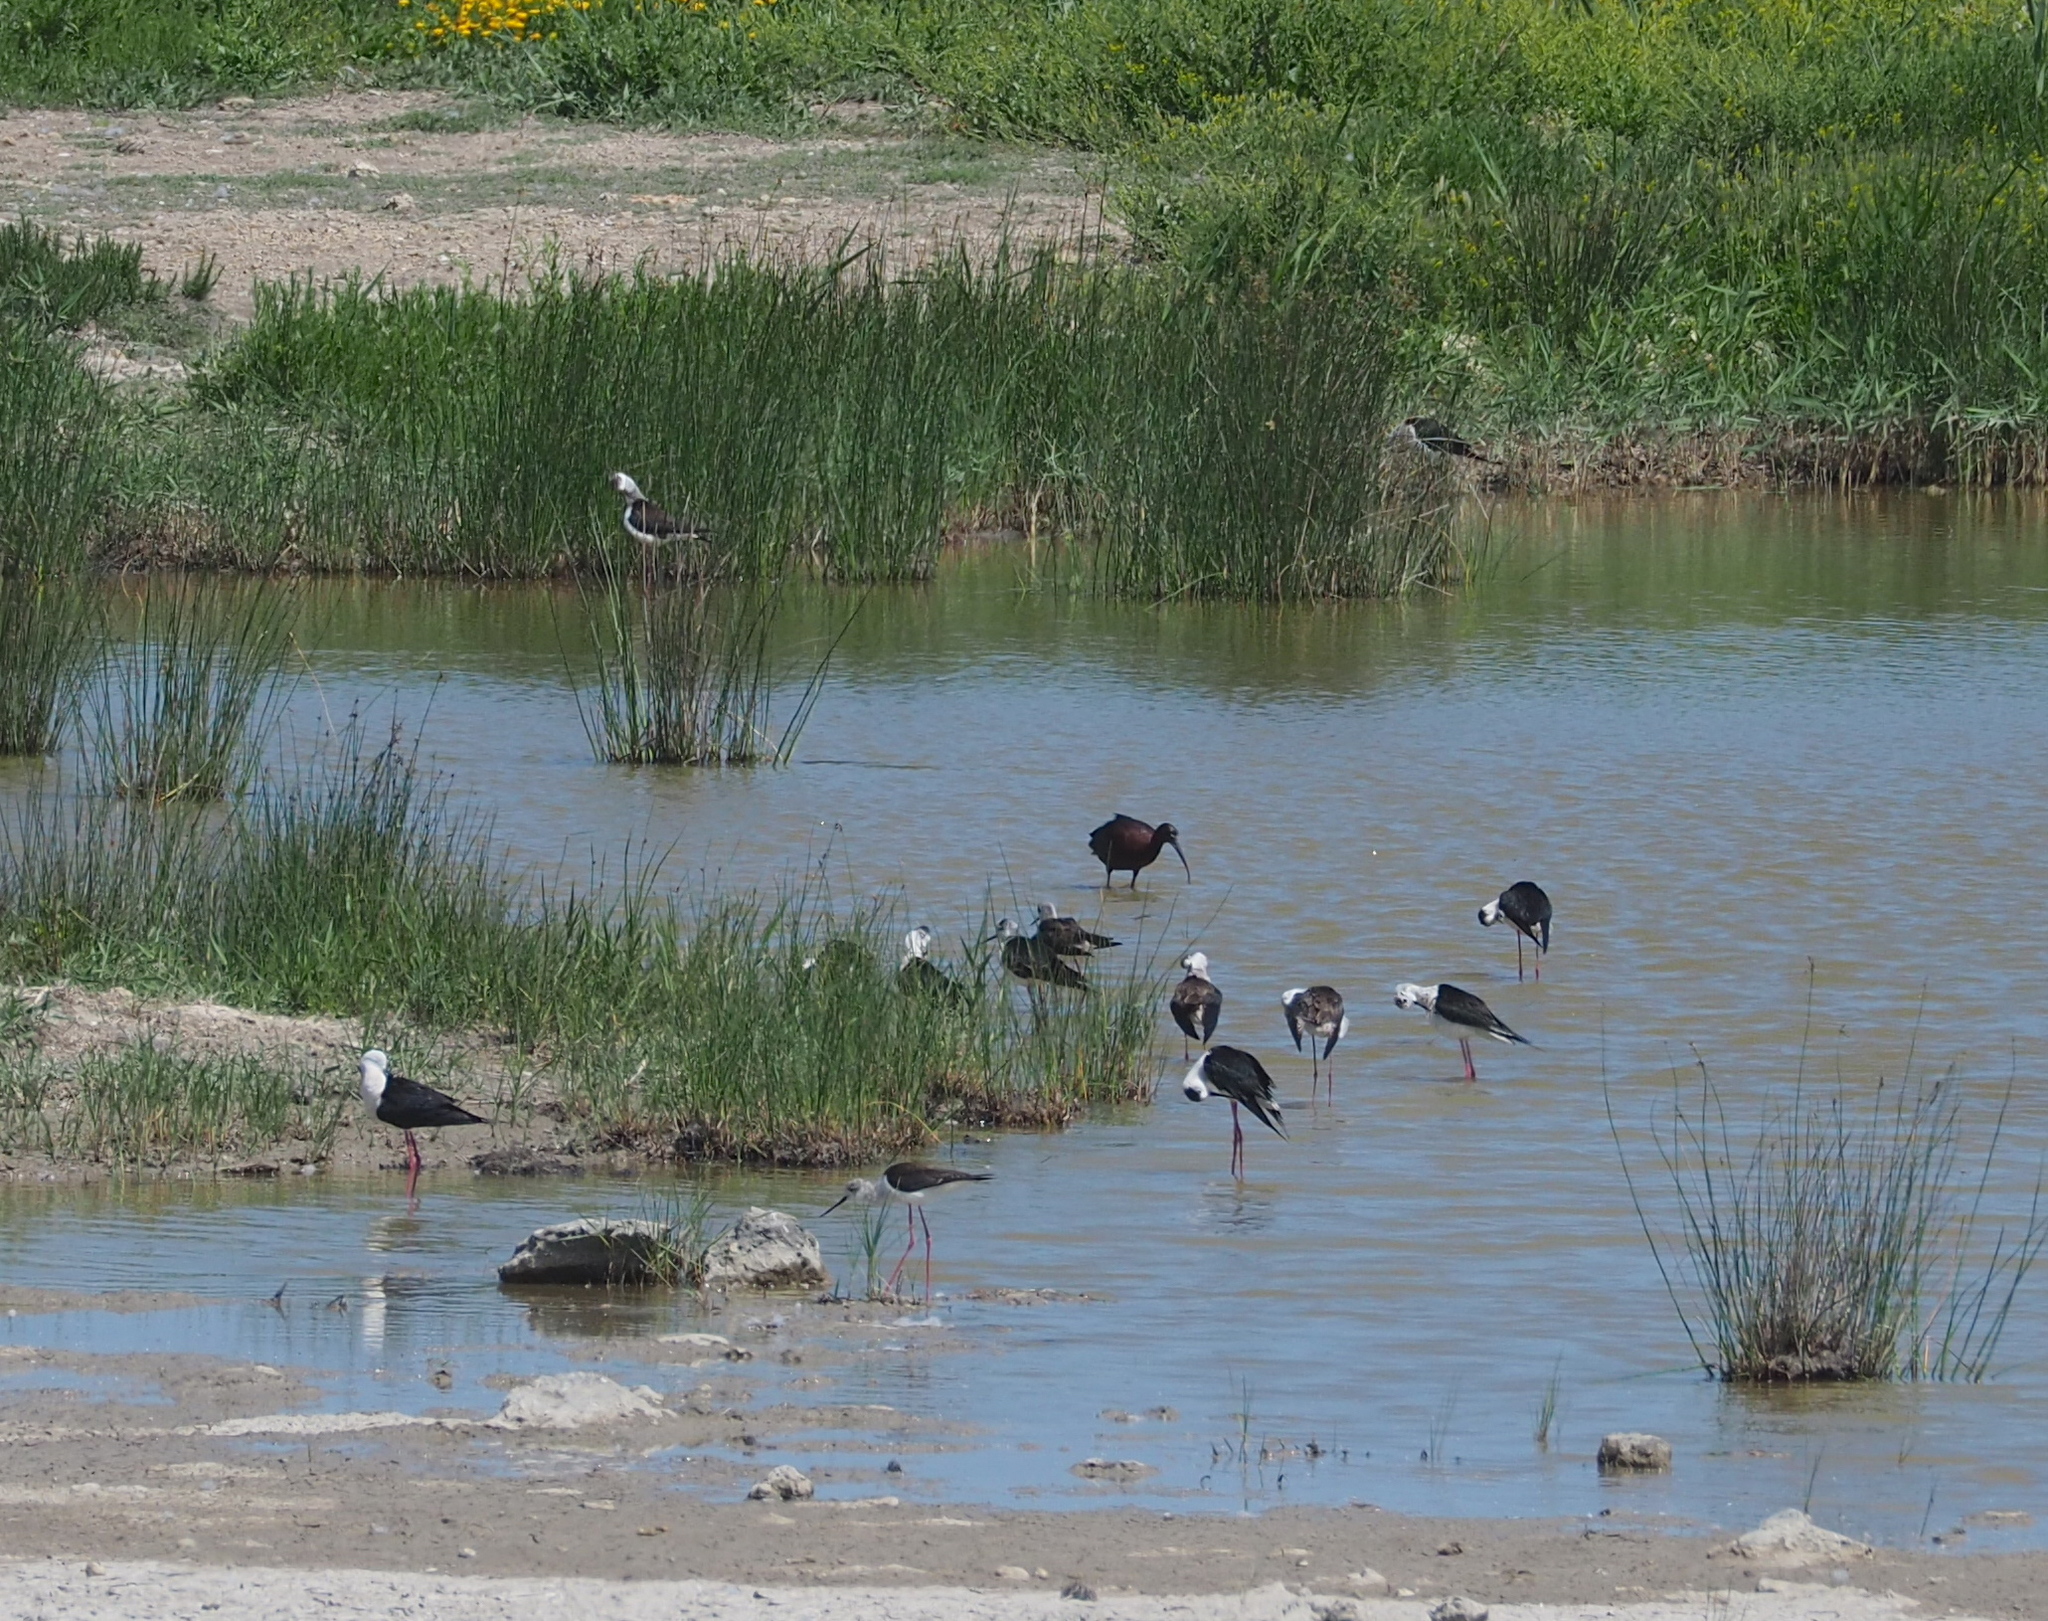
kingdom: Animalia
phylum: Chordata
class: Aves
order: Pelecaniformes
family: Threskiornithidae
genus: Plegadis
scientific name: Plegadis falcinellus
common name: Glossy ibis
